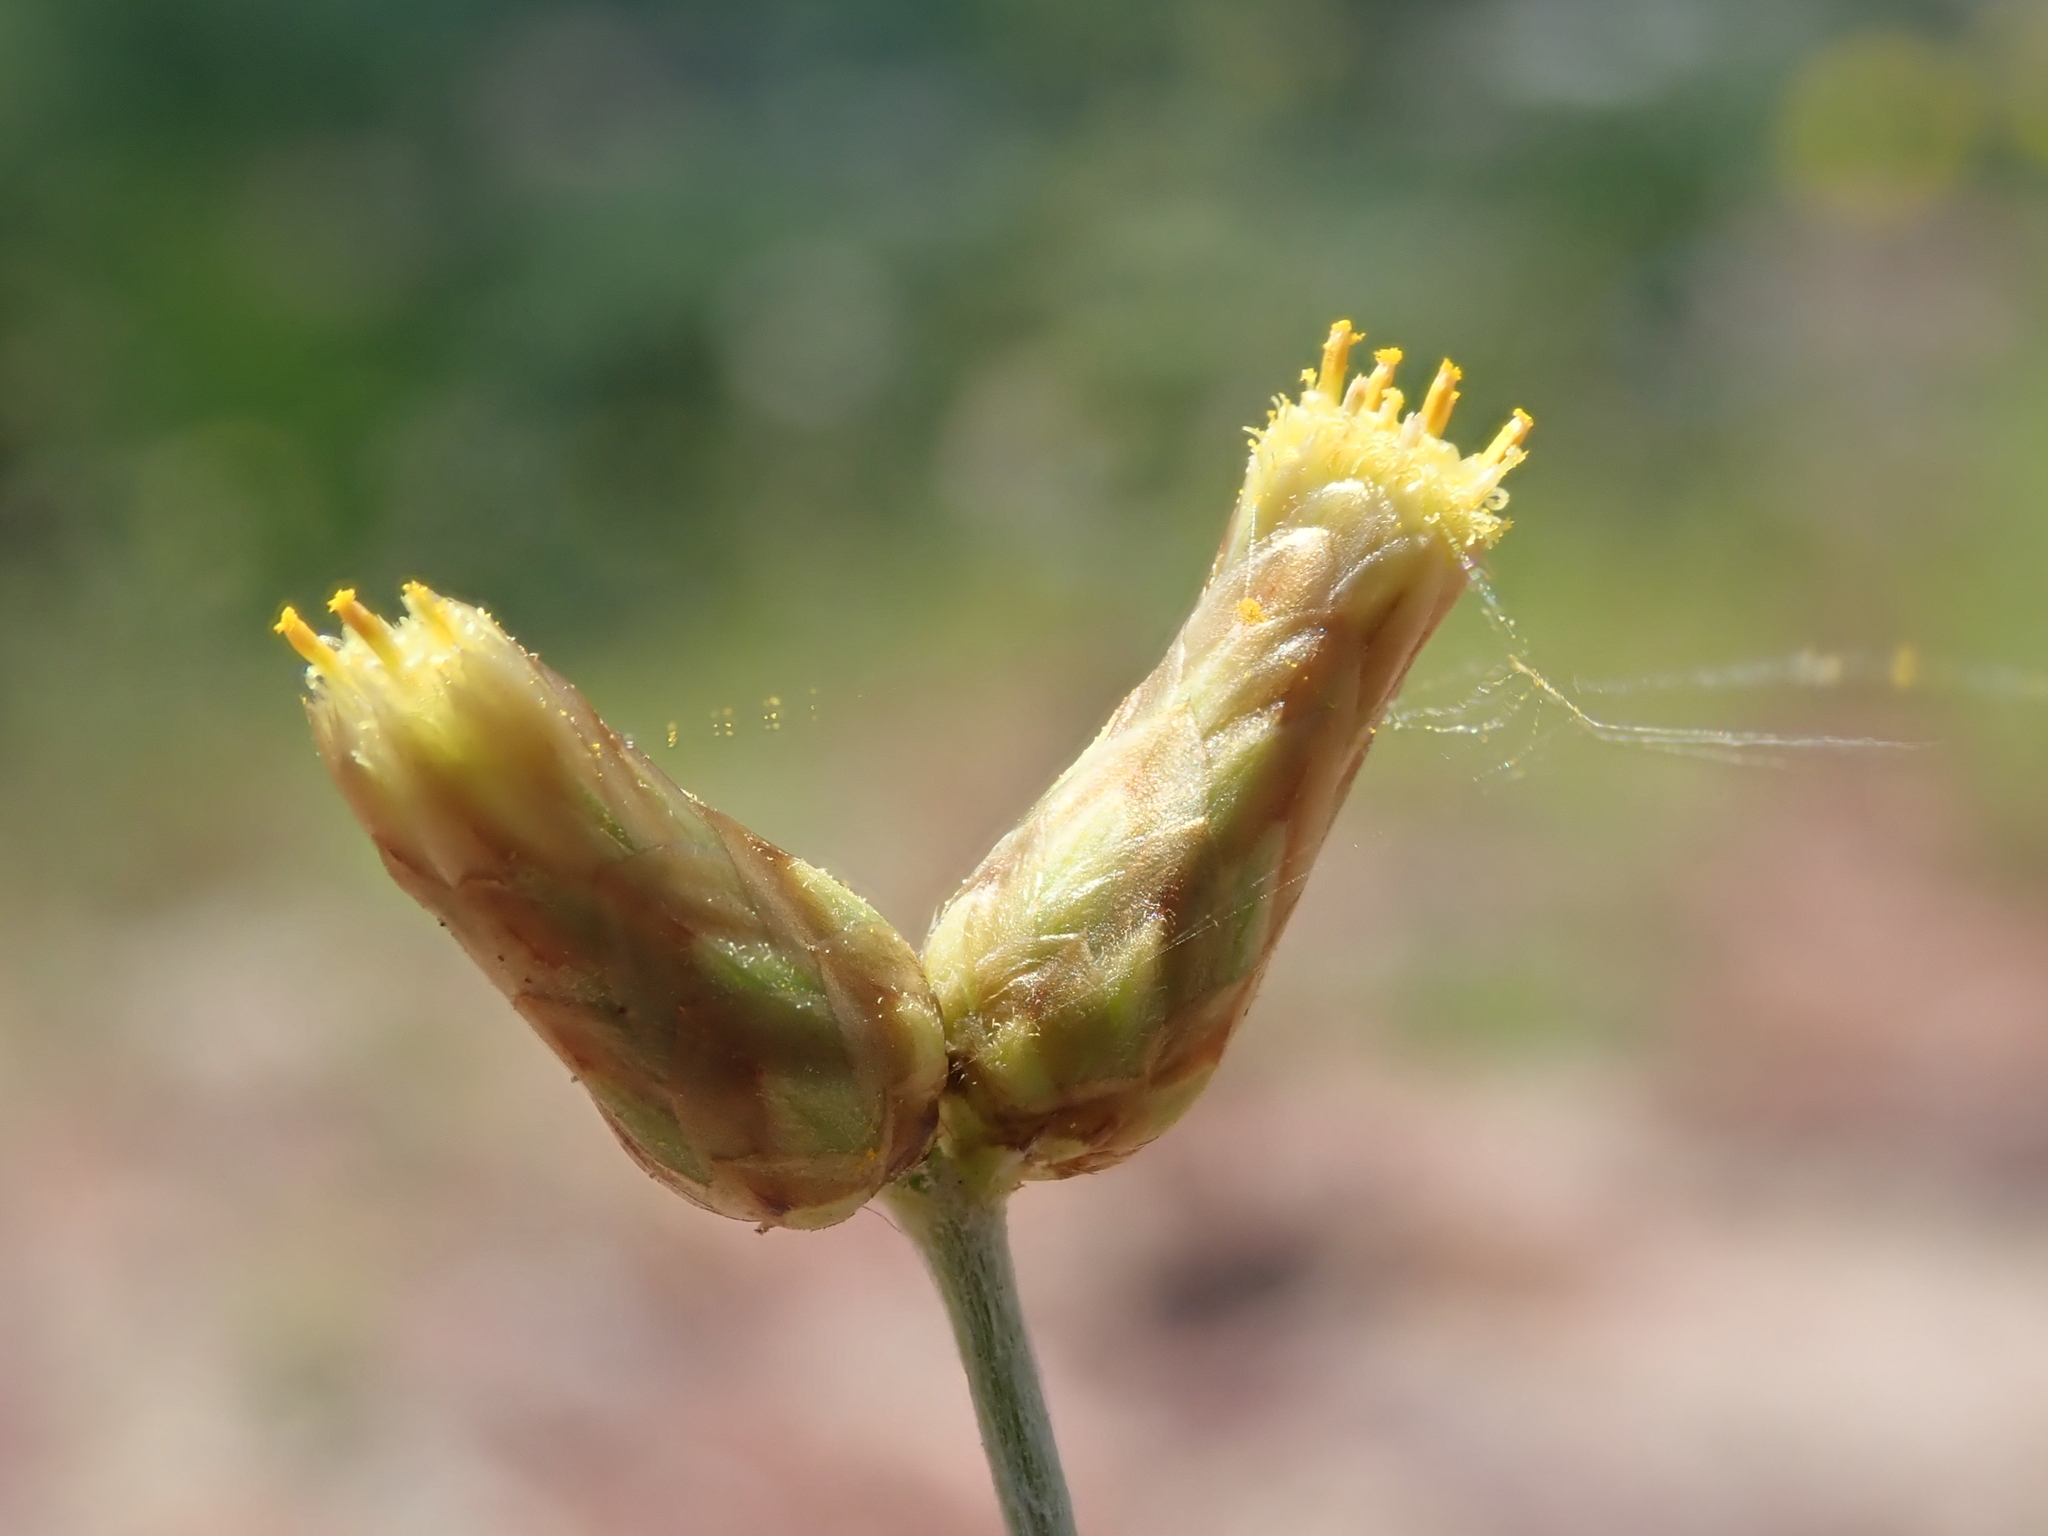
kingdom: Plantae
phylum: Tracheophyta
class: Magnoliopsida
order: Asterales
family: Asteraceae
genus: Phagnalon
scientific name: Phagnalon sordidum
